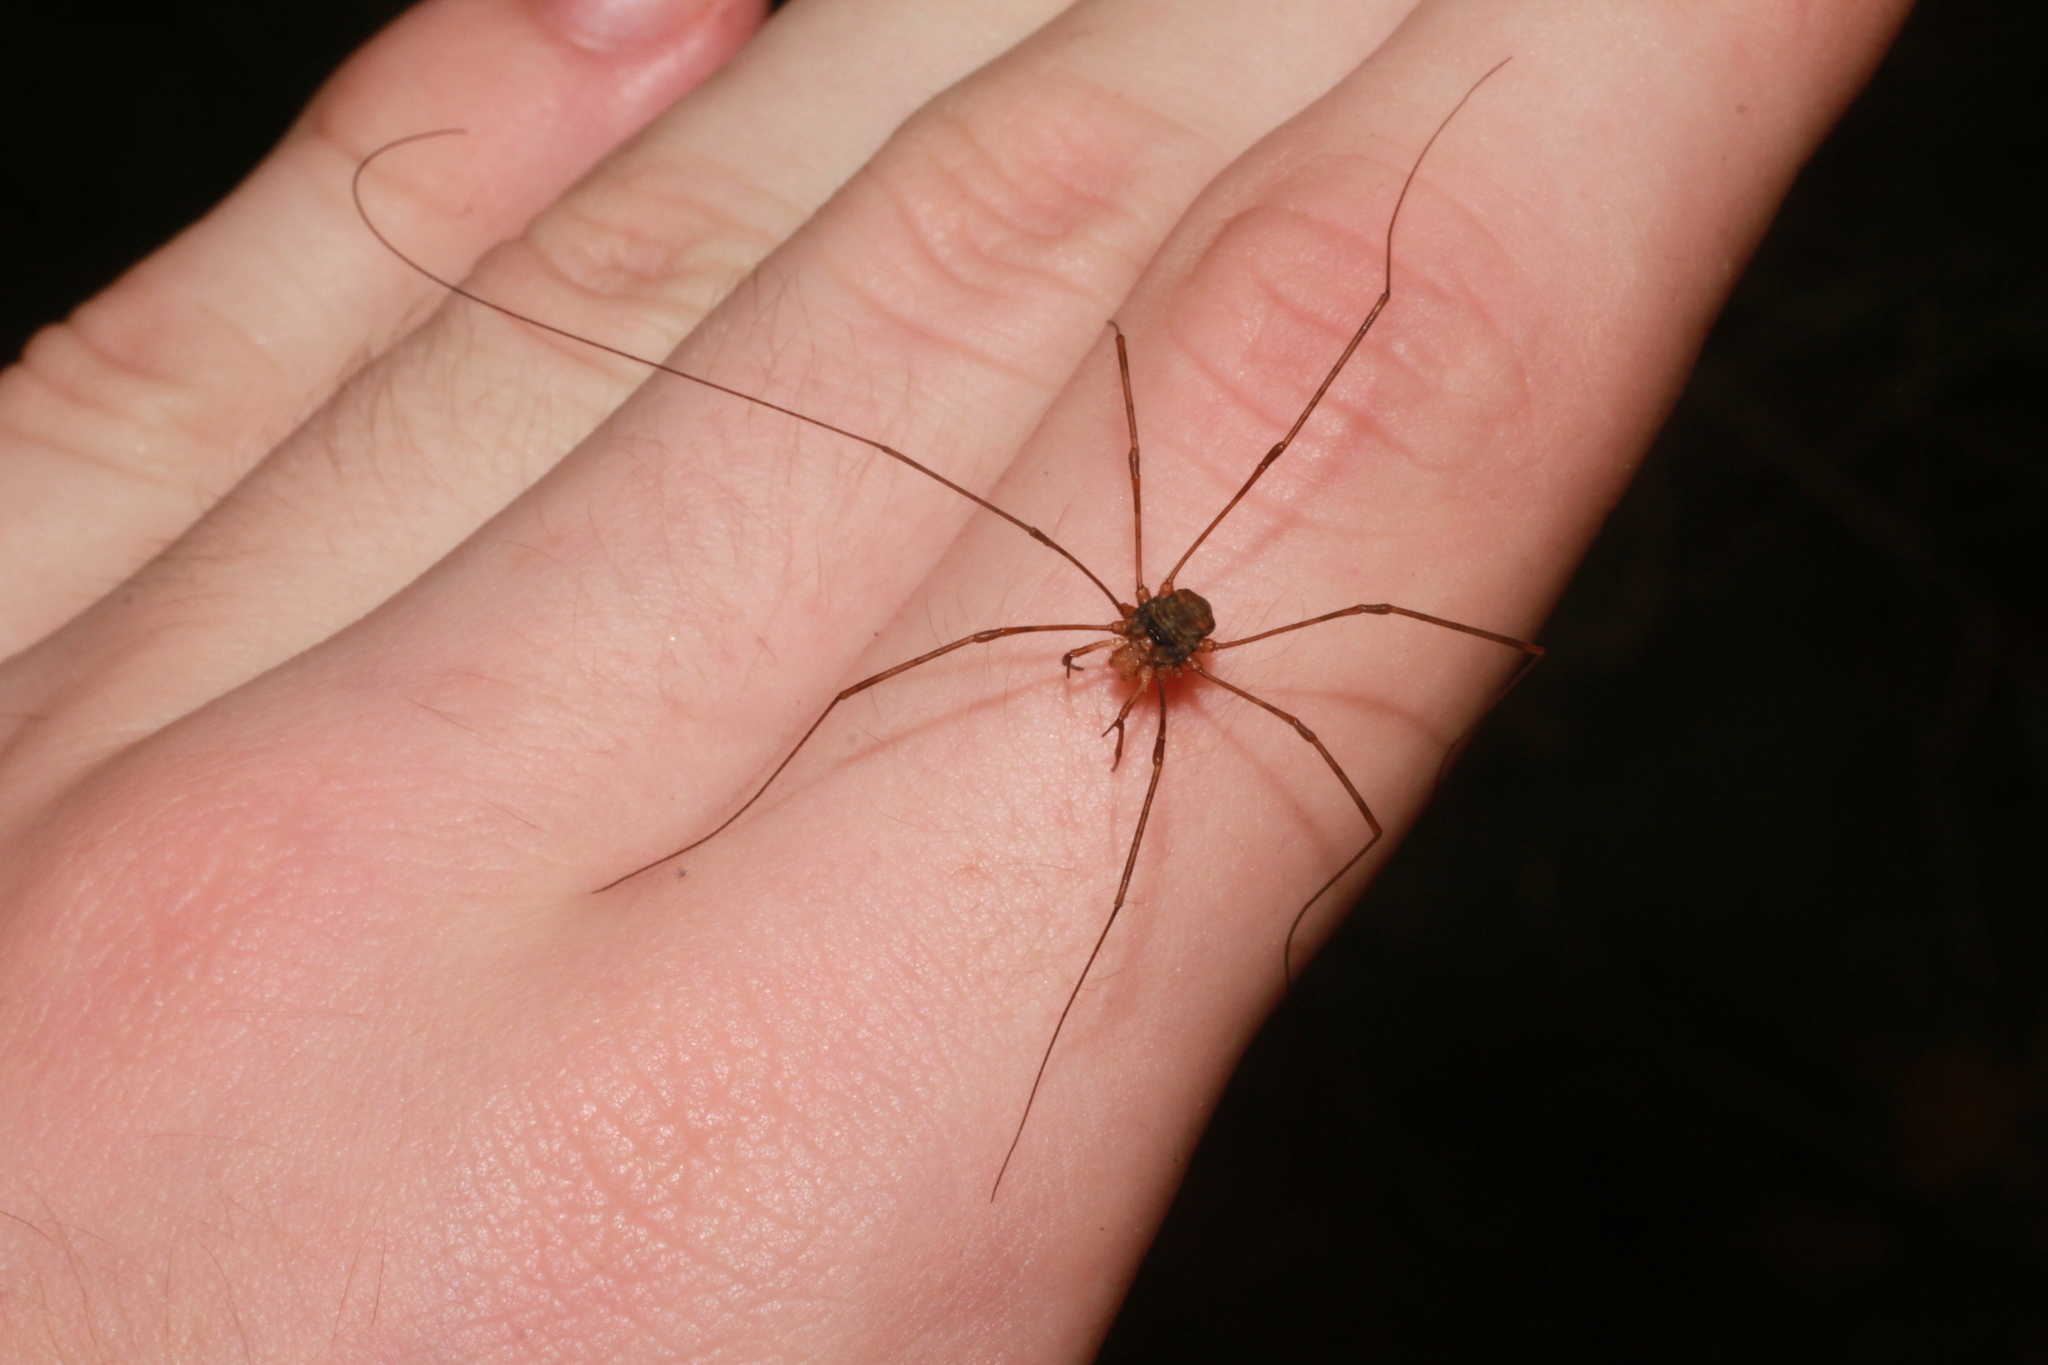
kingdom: Animalia
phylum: Arthropoda
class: Arachnida
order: Opiliones
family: Phalangiidae
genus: Dicranopalpus
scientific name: Dicranopalpus
